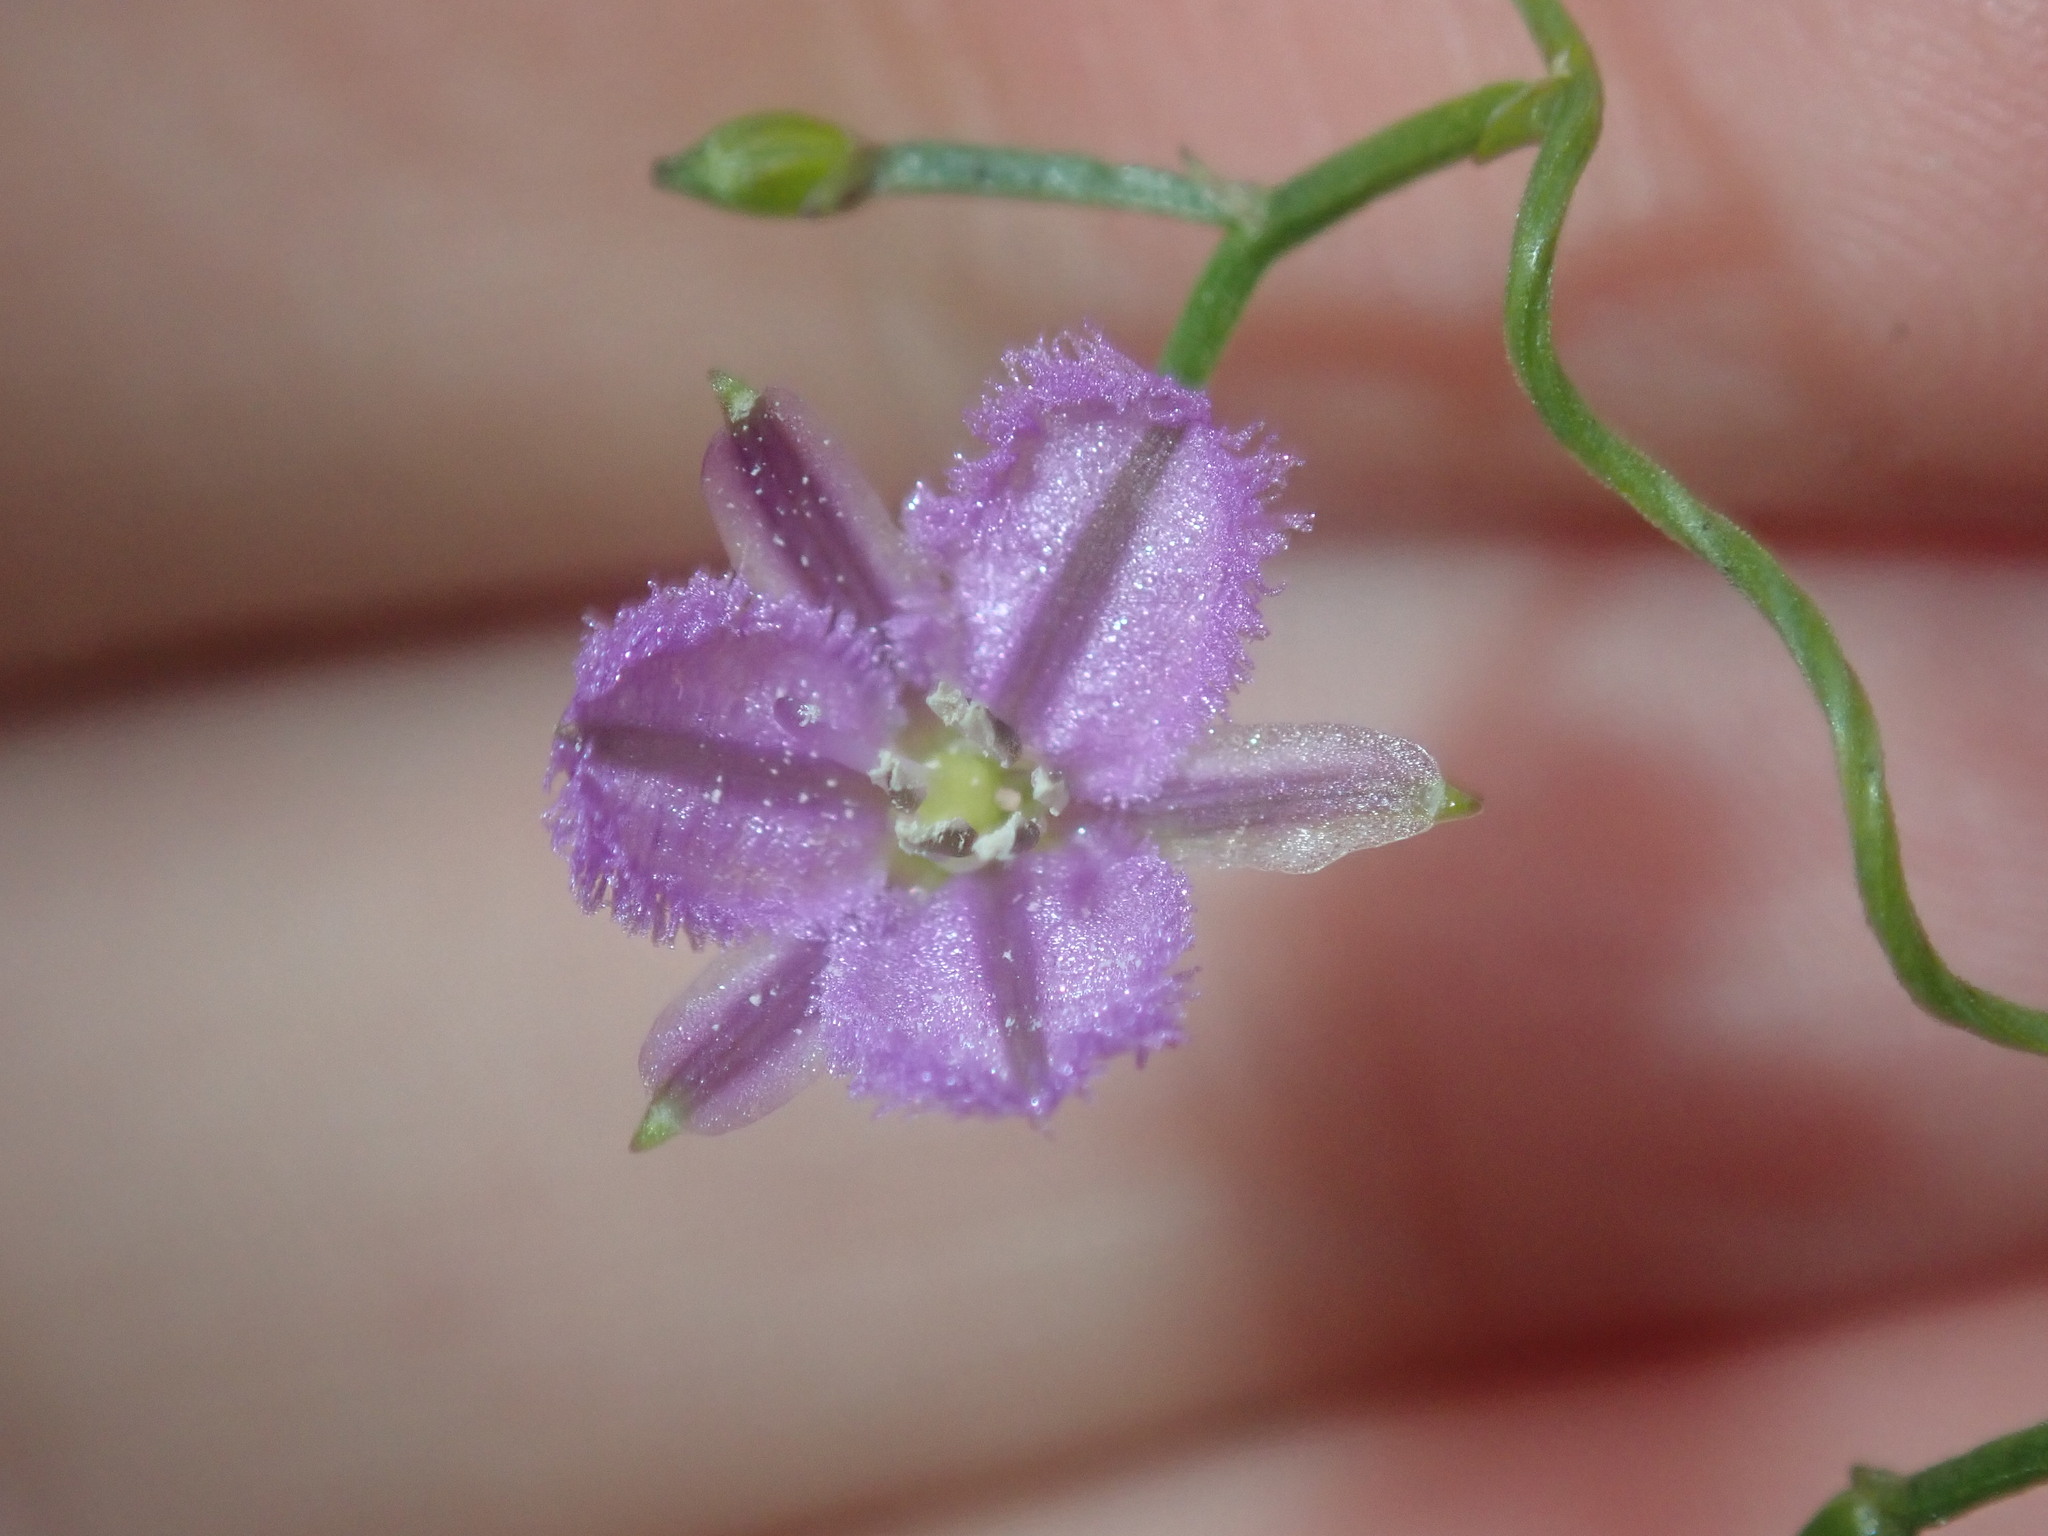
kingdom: Plantae
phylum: Tracheophyta
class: Liliopsida
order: Asparagales
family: Asparagaceae
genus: Thysanotus
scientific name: Thysanotus patersonii
